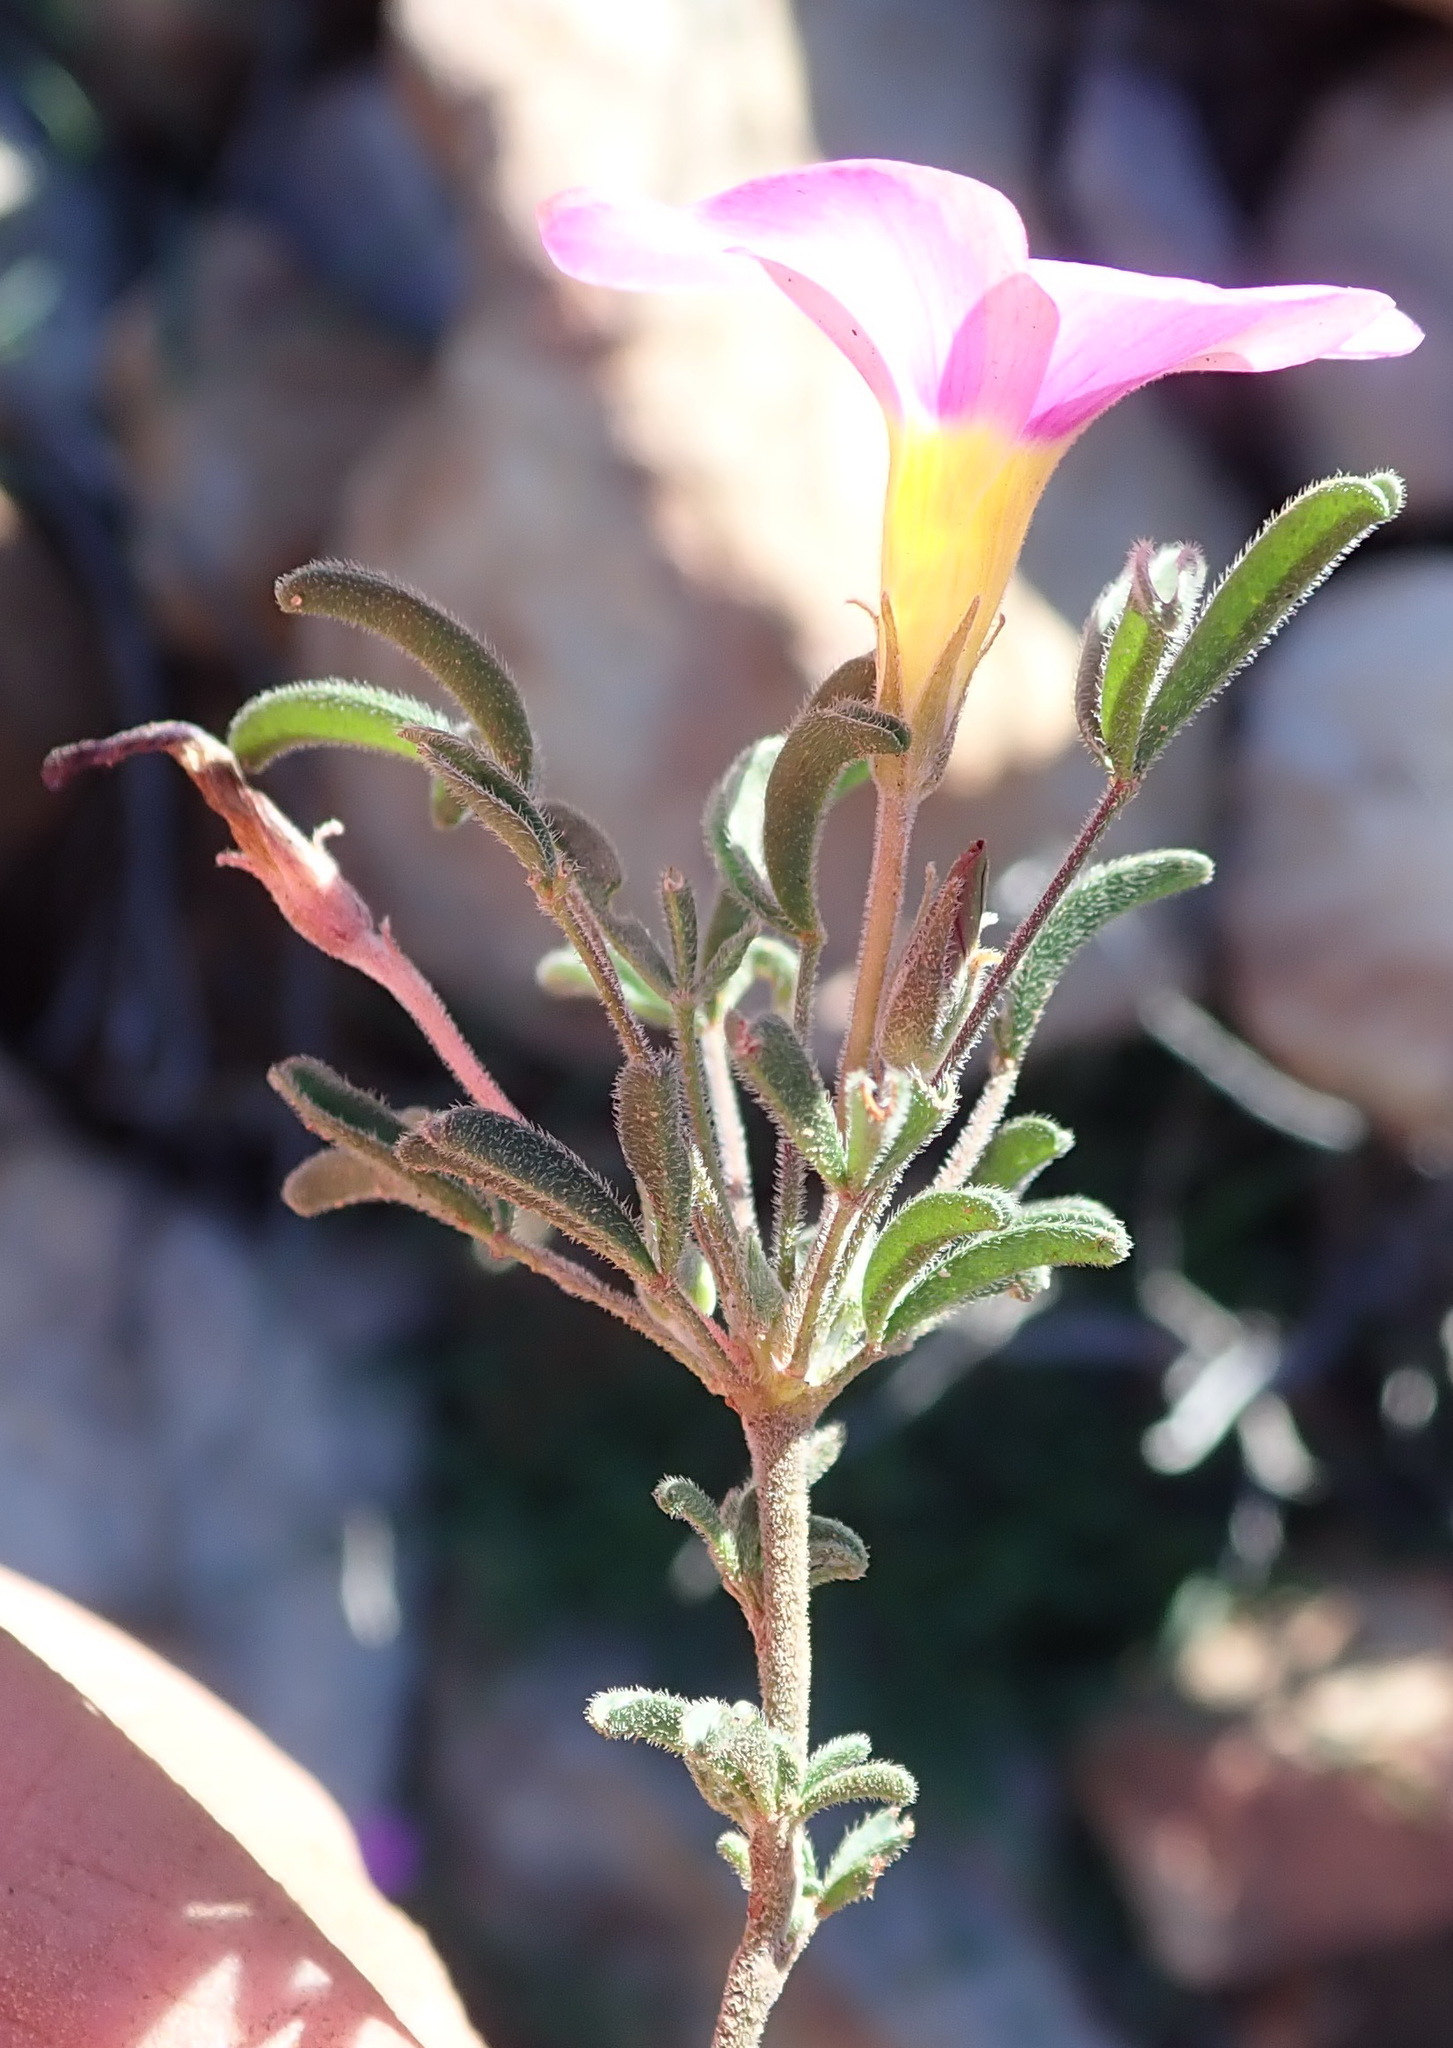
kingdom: Plantae
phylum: Tracheophyta
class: Magnoliopsida
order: Oxalidales
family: Oxalidaceae
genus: Oxalis
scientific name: Oxalis ciliaris
